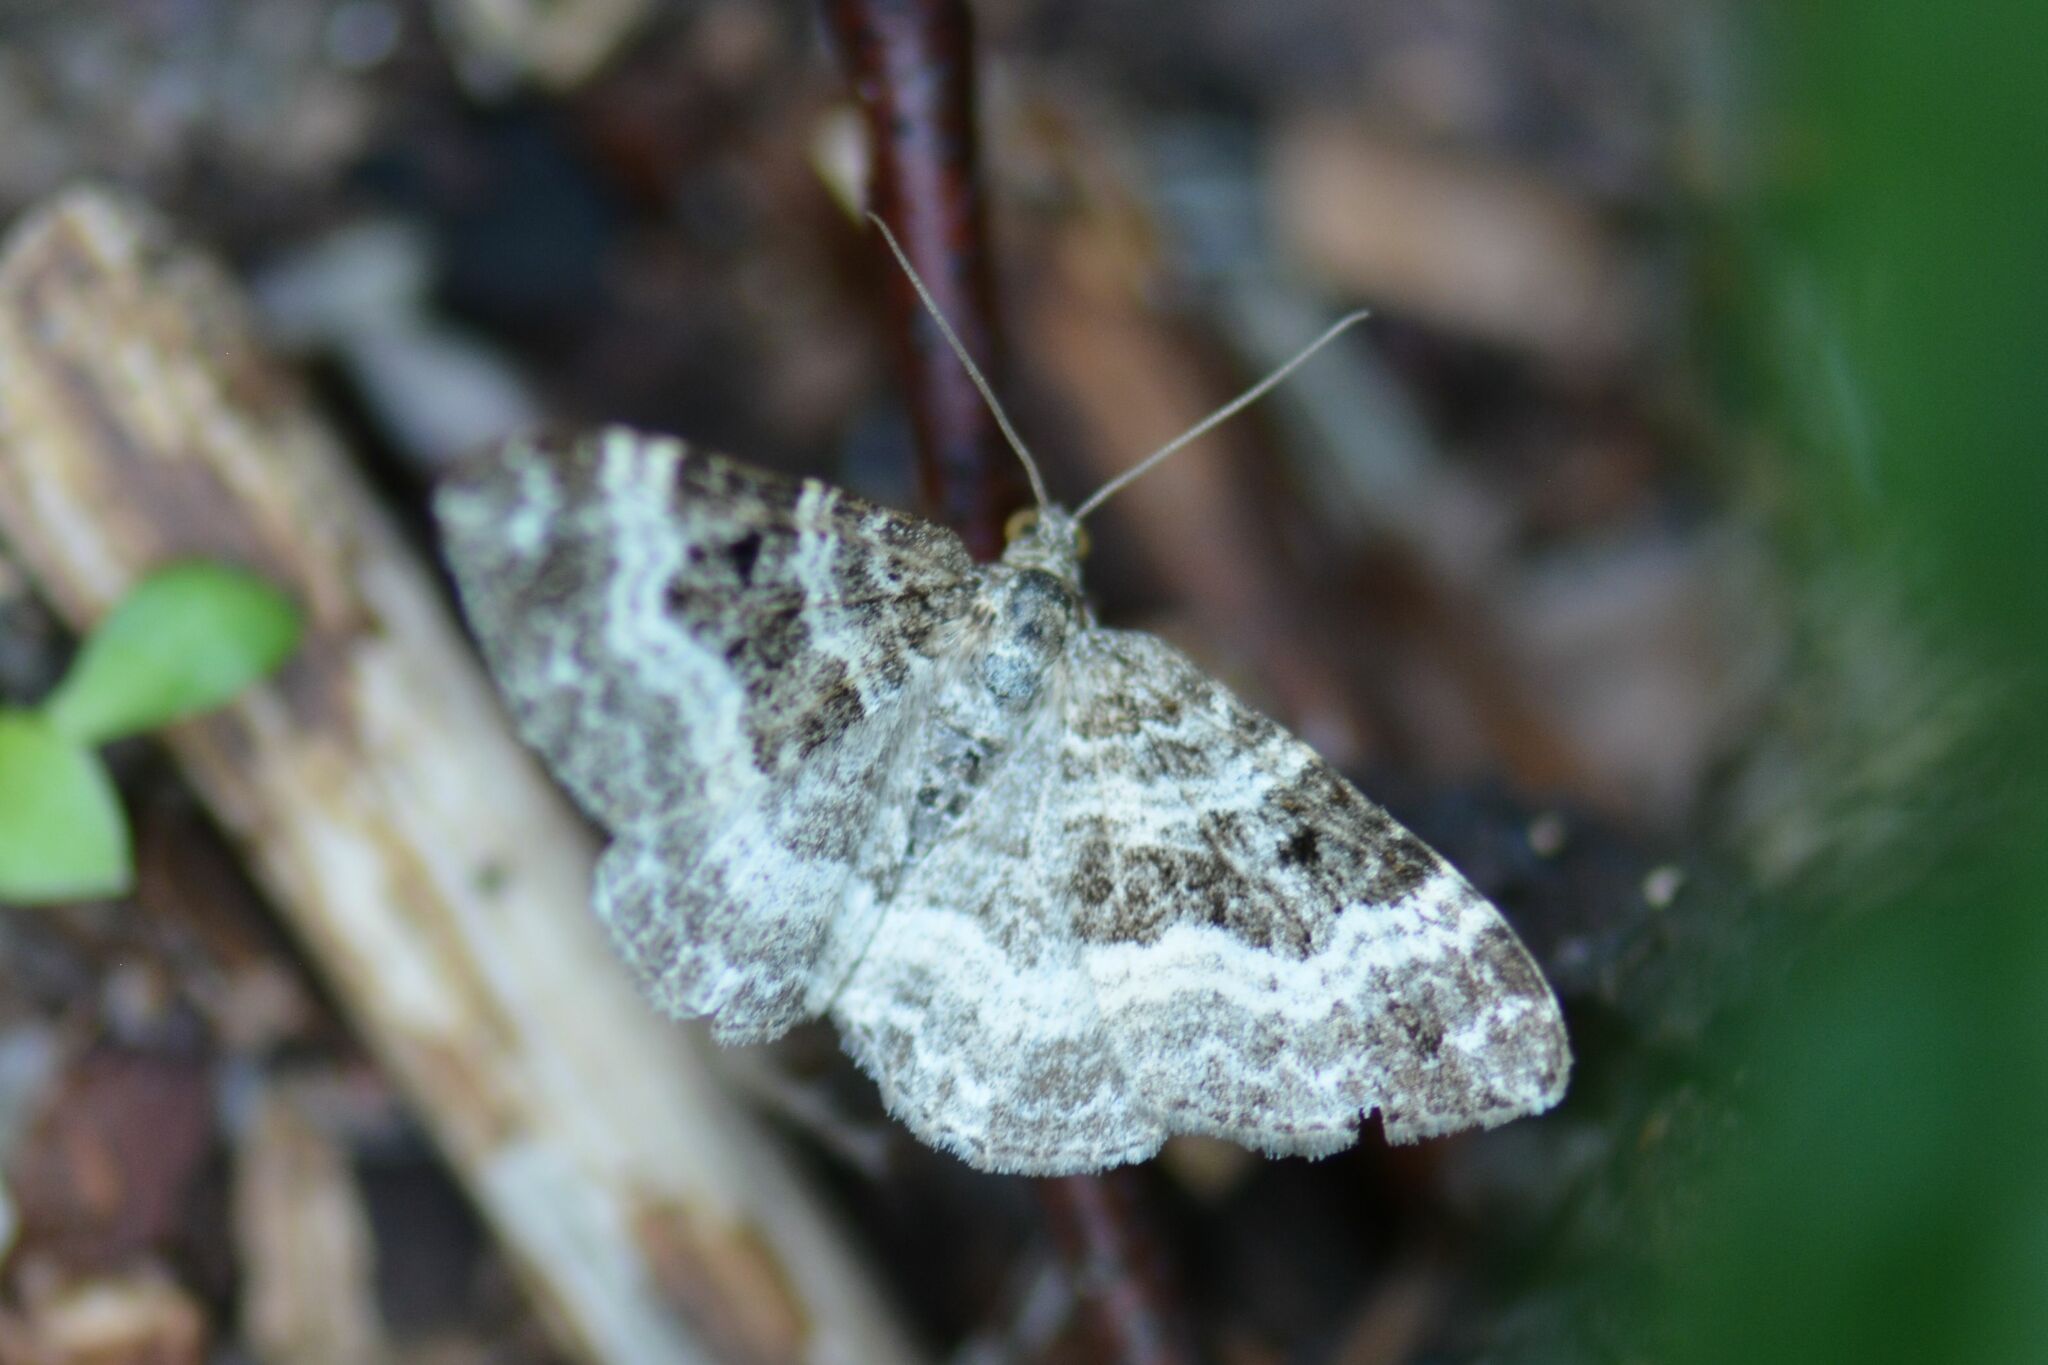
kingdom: Animalia
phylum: Arthropoda
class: Insecta
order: Lepidoptera
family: Geometridae
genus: Epirrhoe
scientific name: Epirrhoe alternata
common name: Common carpet
